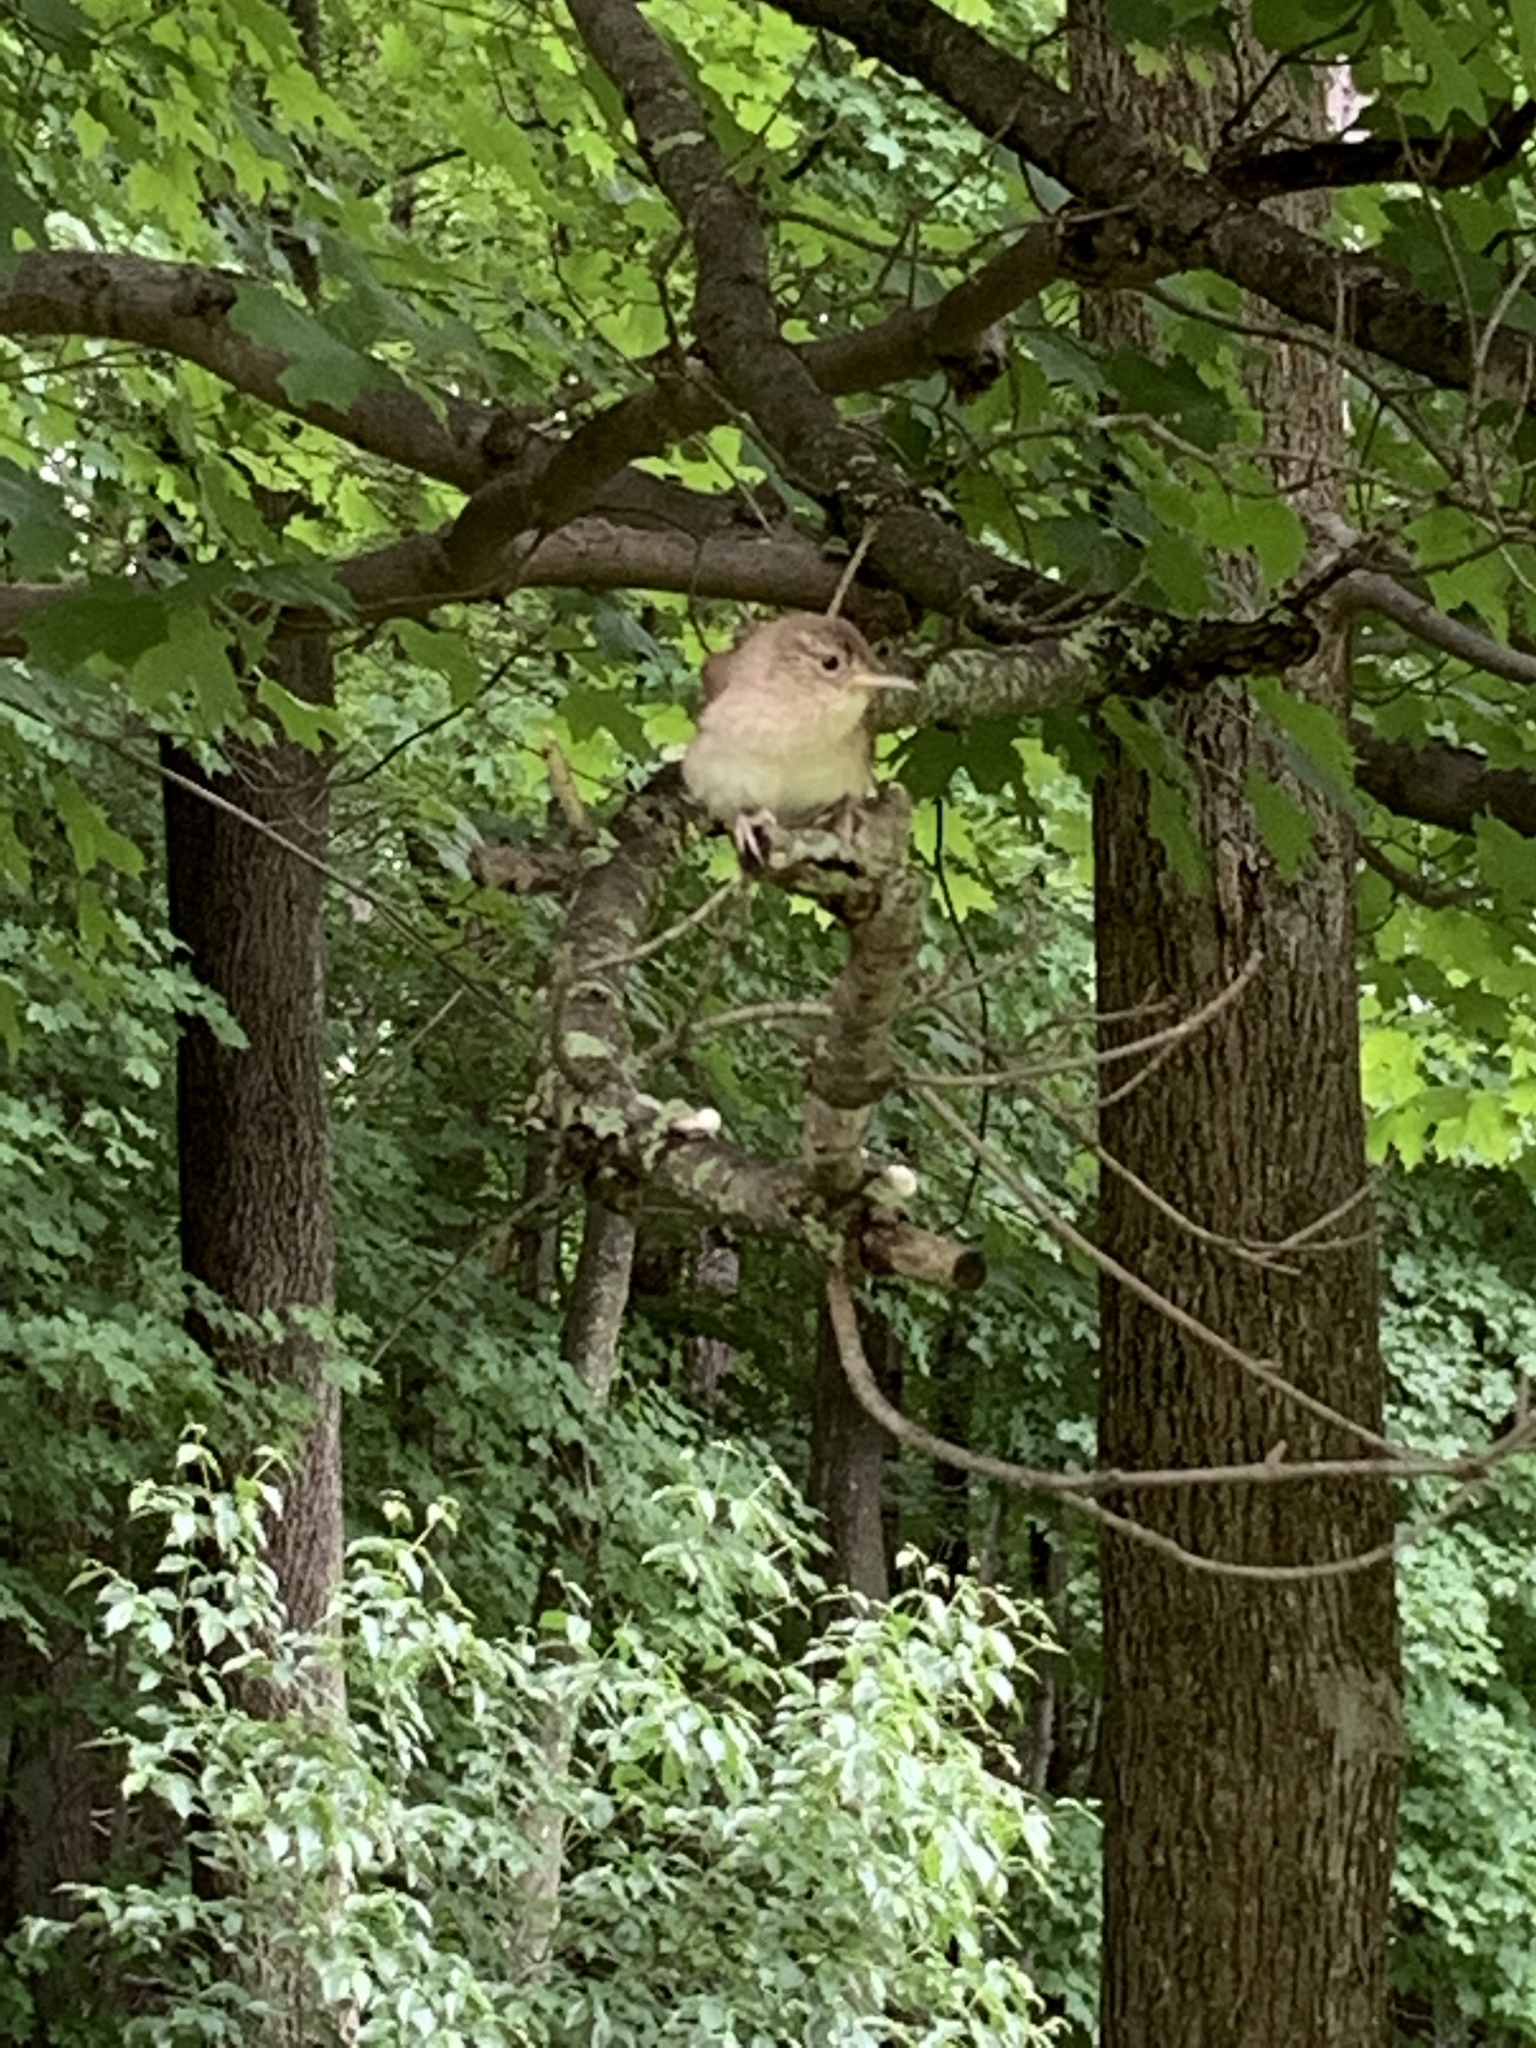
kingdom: Animalia
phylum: Chordata
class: Aves
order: Passeriformes
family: Troglodytidae
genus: Troglodytes
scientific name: Troglodytes aedon
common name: House wren
